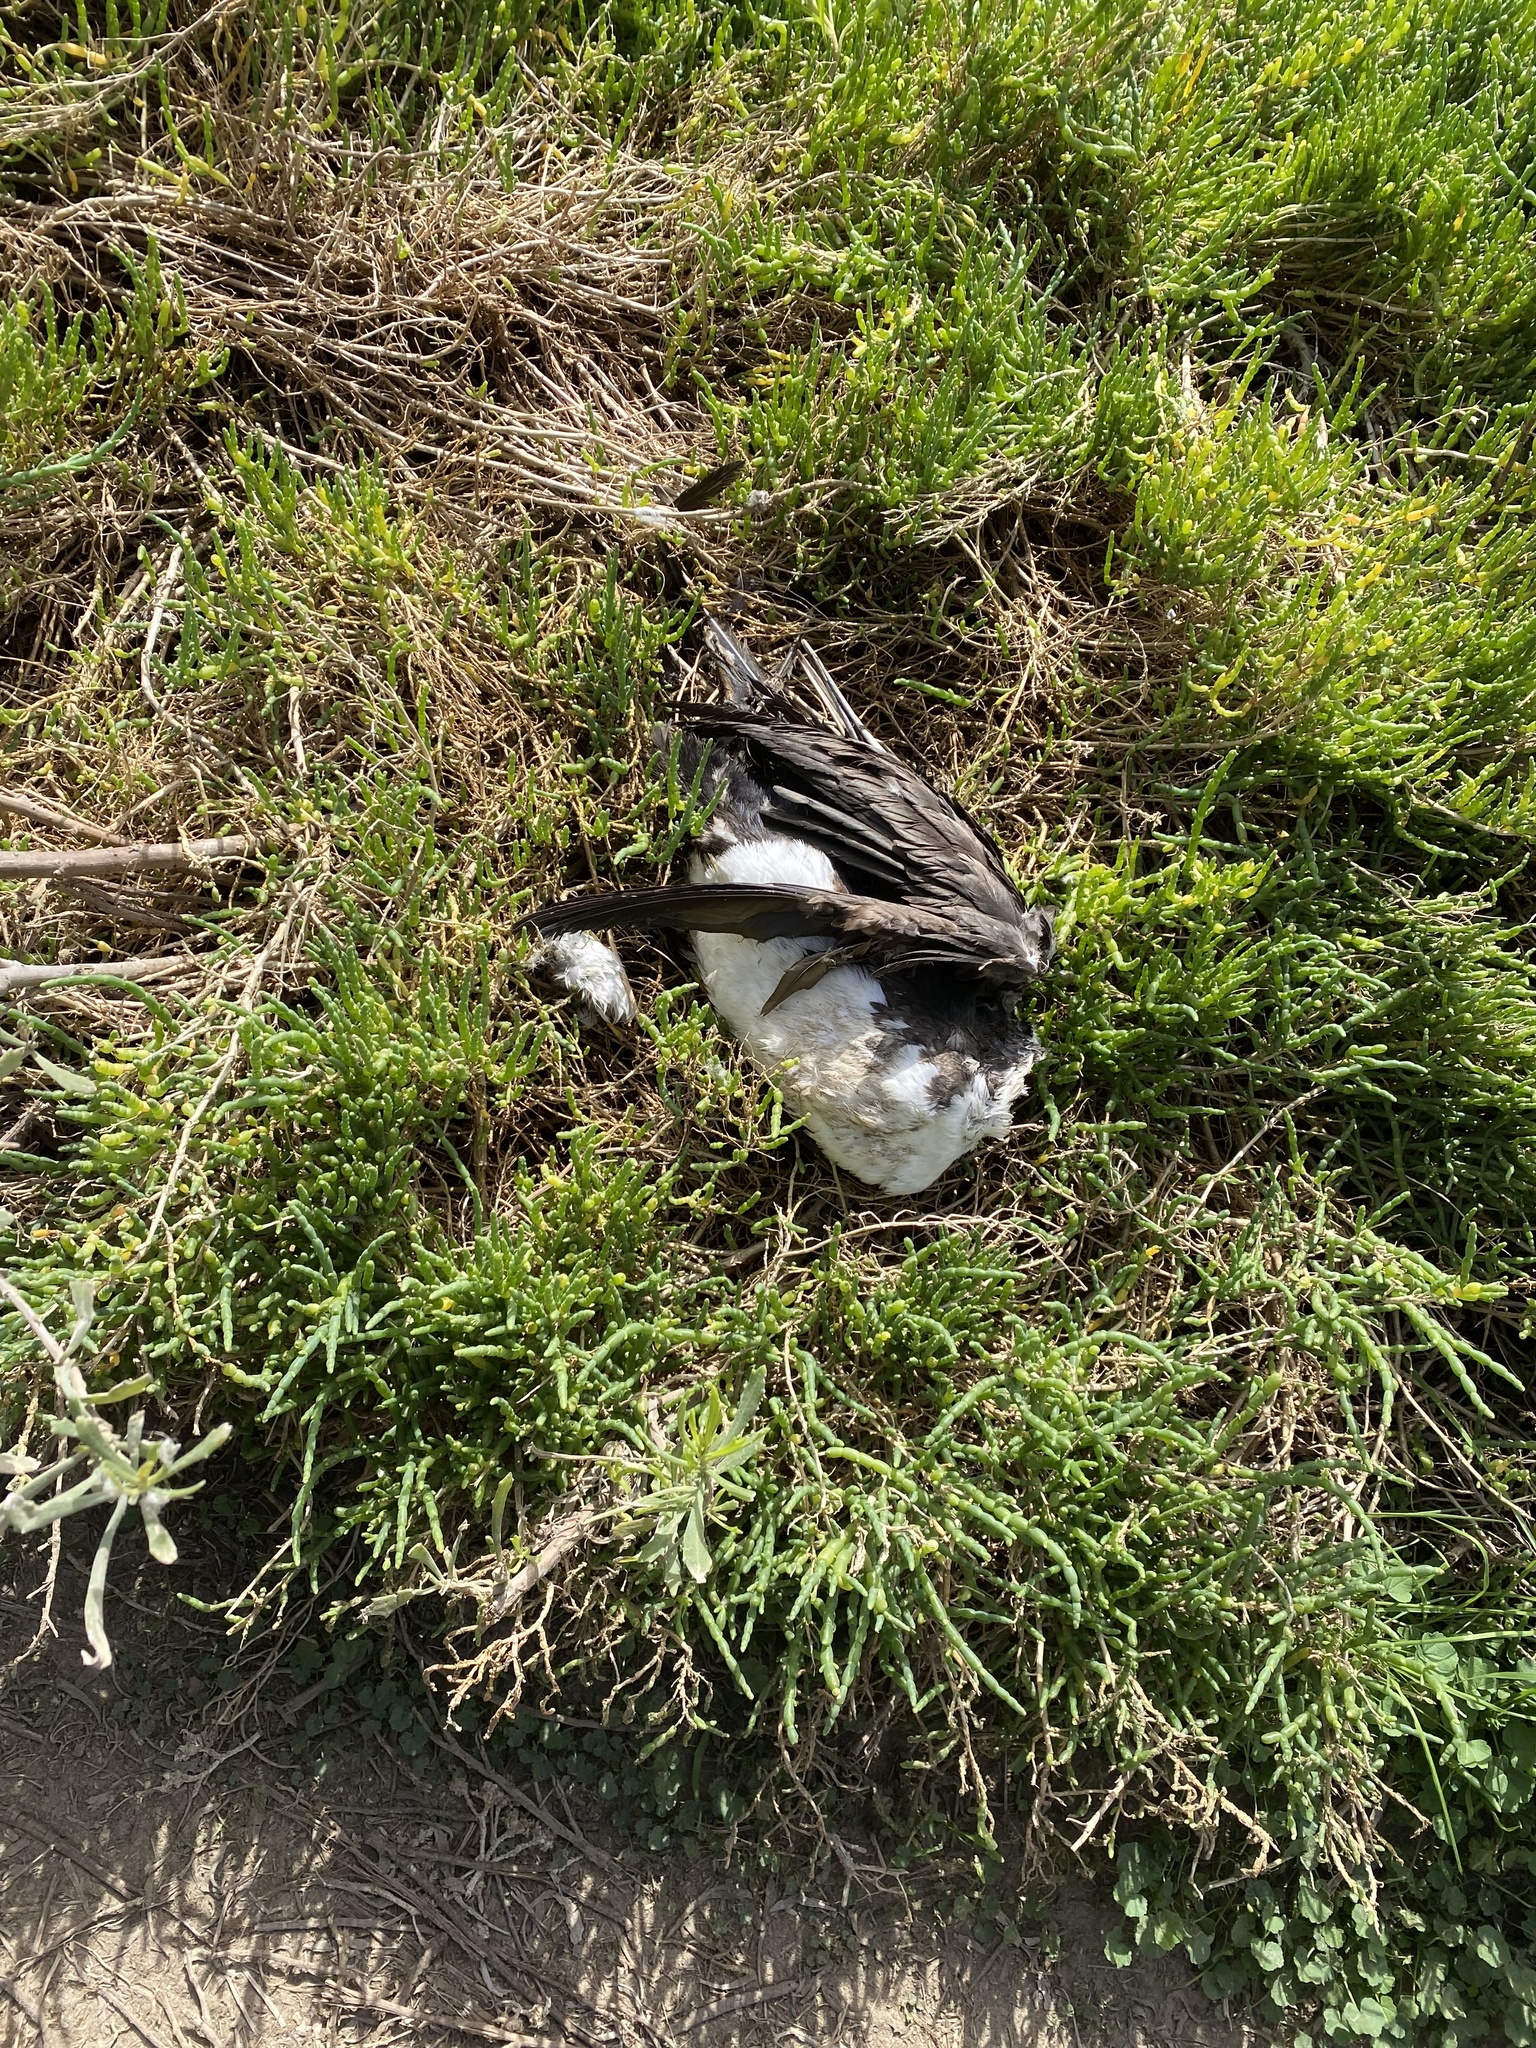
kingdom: Animalia
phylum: Chordata
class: Aves
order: Suliformes
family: Phalacrocoracidae
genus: Leucocarbo
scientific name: Leucocarbo bougainvillii
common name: Guanay cormorant
